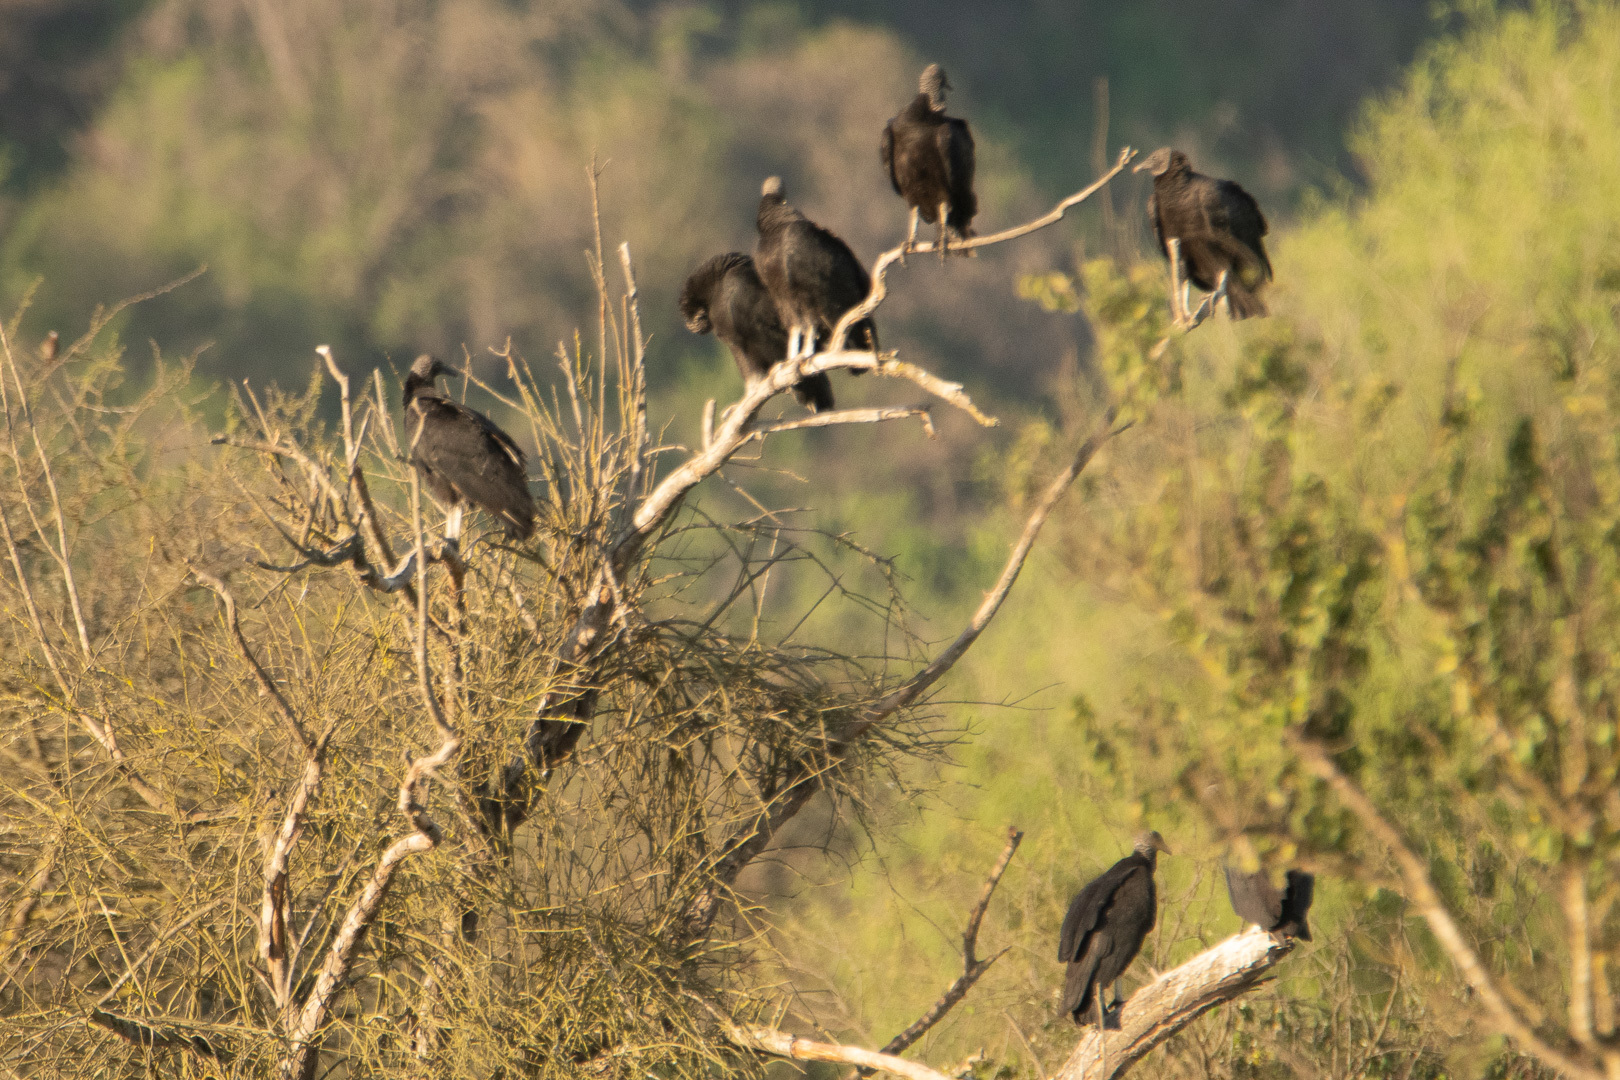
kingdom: Animalia
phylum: Chordata
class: Aves
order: Accipitriformes
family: Cathartidae
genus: Coragyps
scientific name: Coragyps atratus
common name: Black vulture
